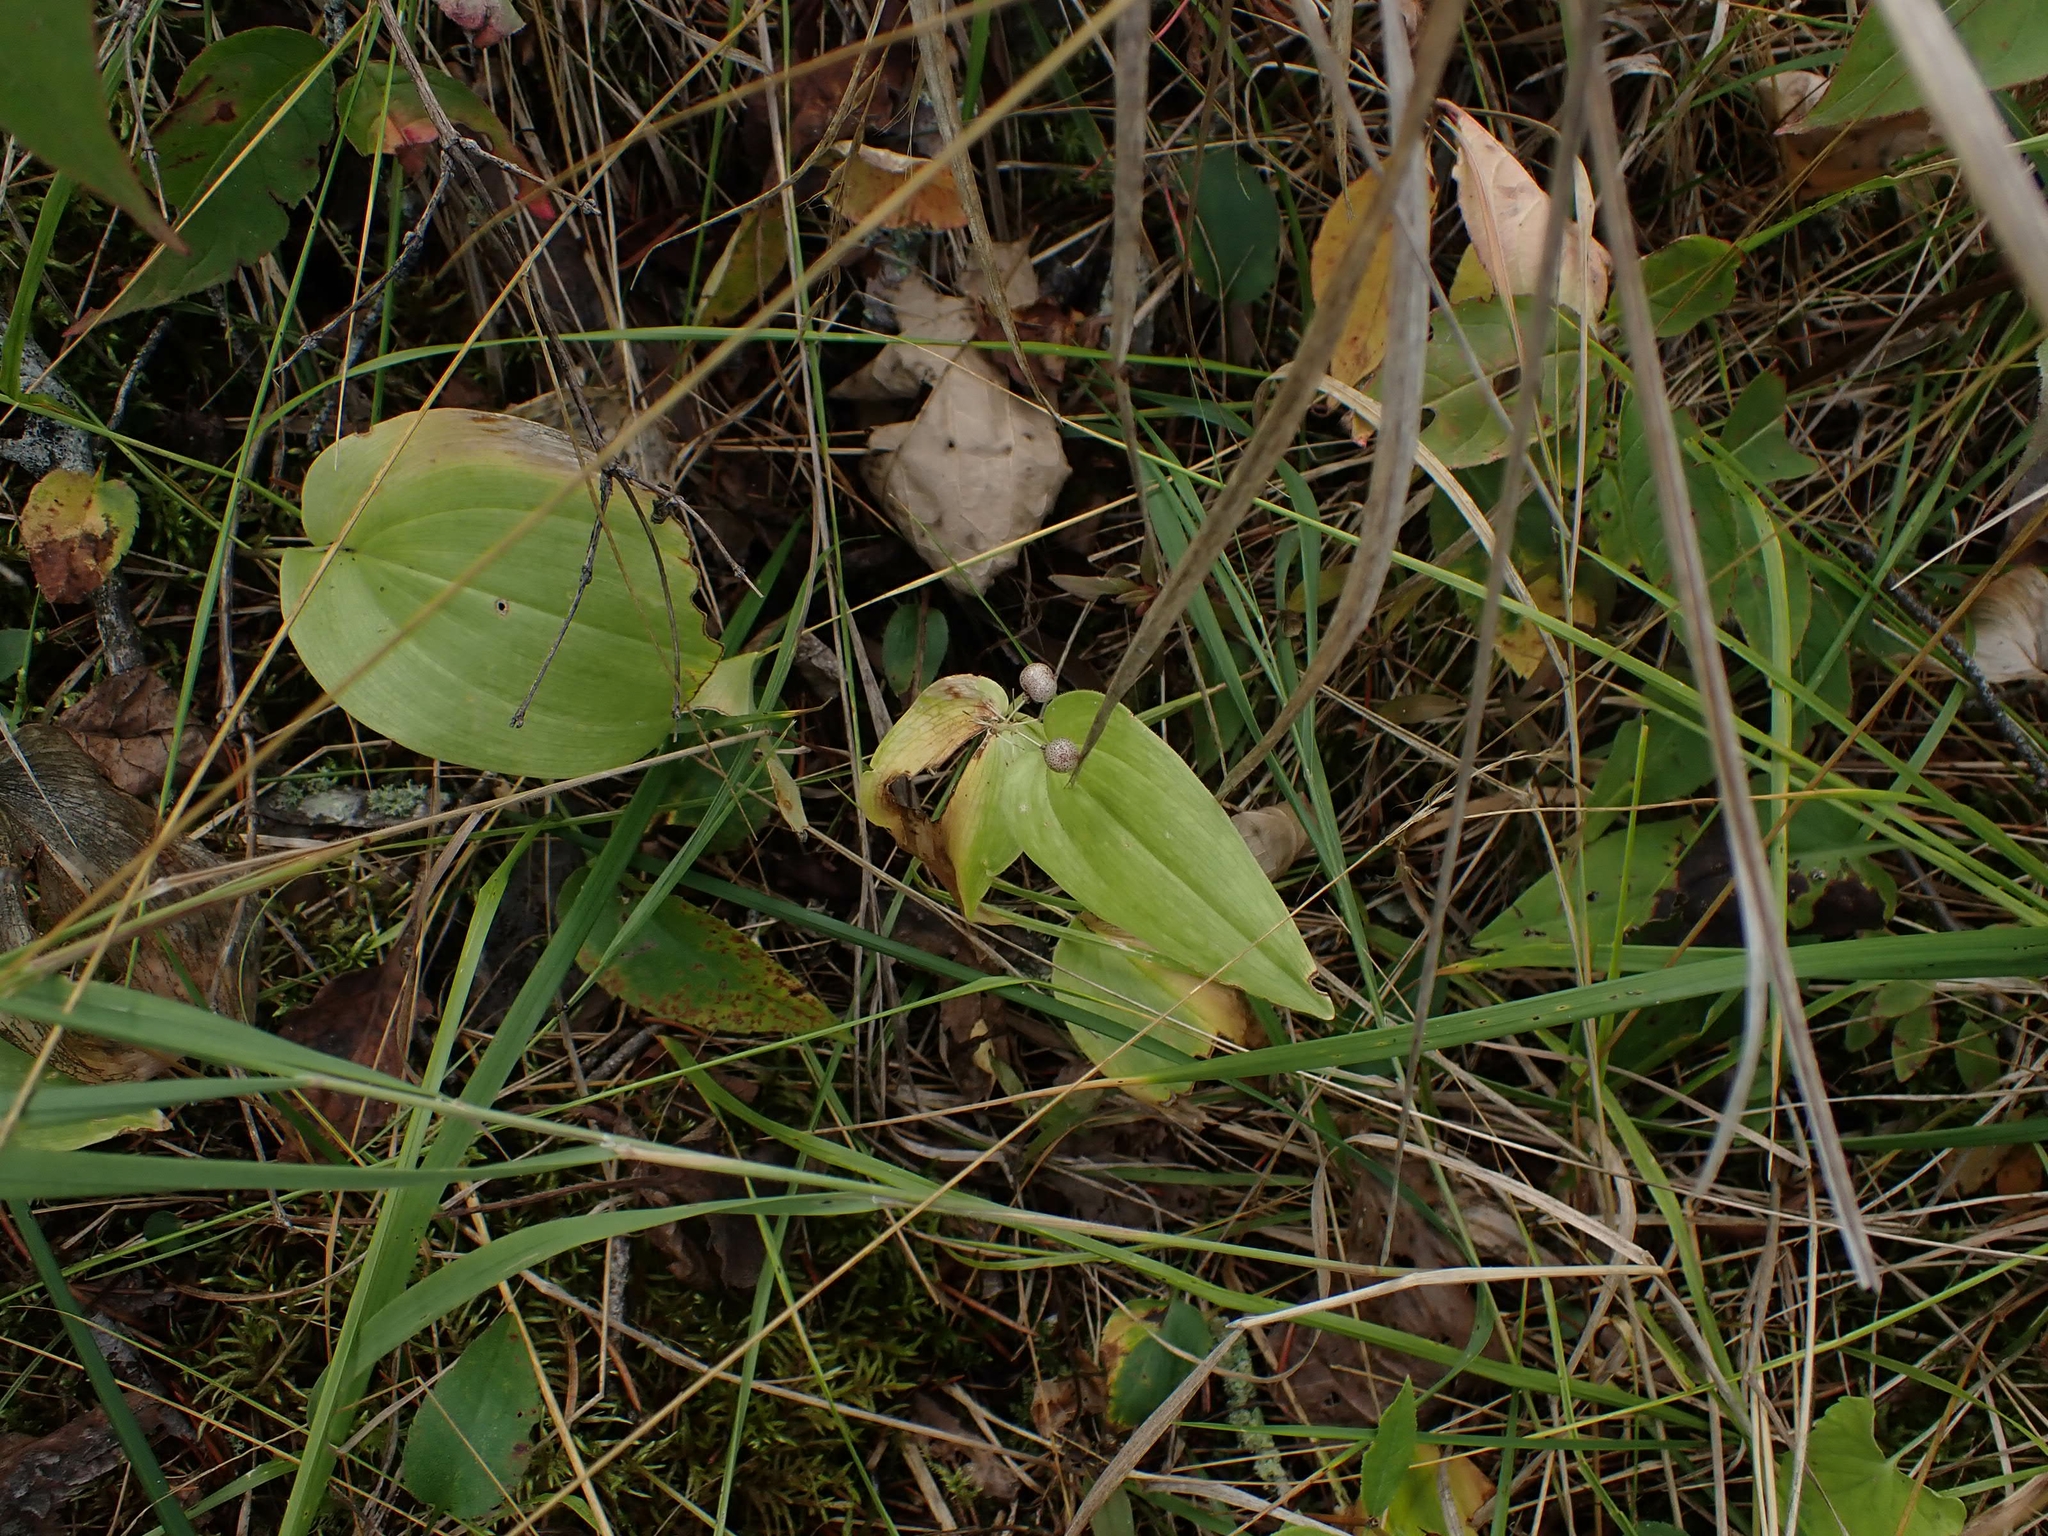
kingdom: Plantae
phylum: Tracheophyta
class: Liliopsida
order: Asparagales
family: Asparagaceae
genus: Maianthemum
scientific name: Maianthemum canadense
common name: False lily-of-the-valley
